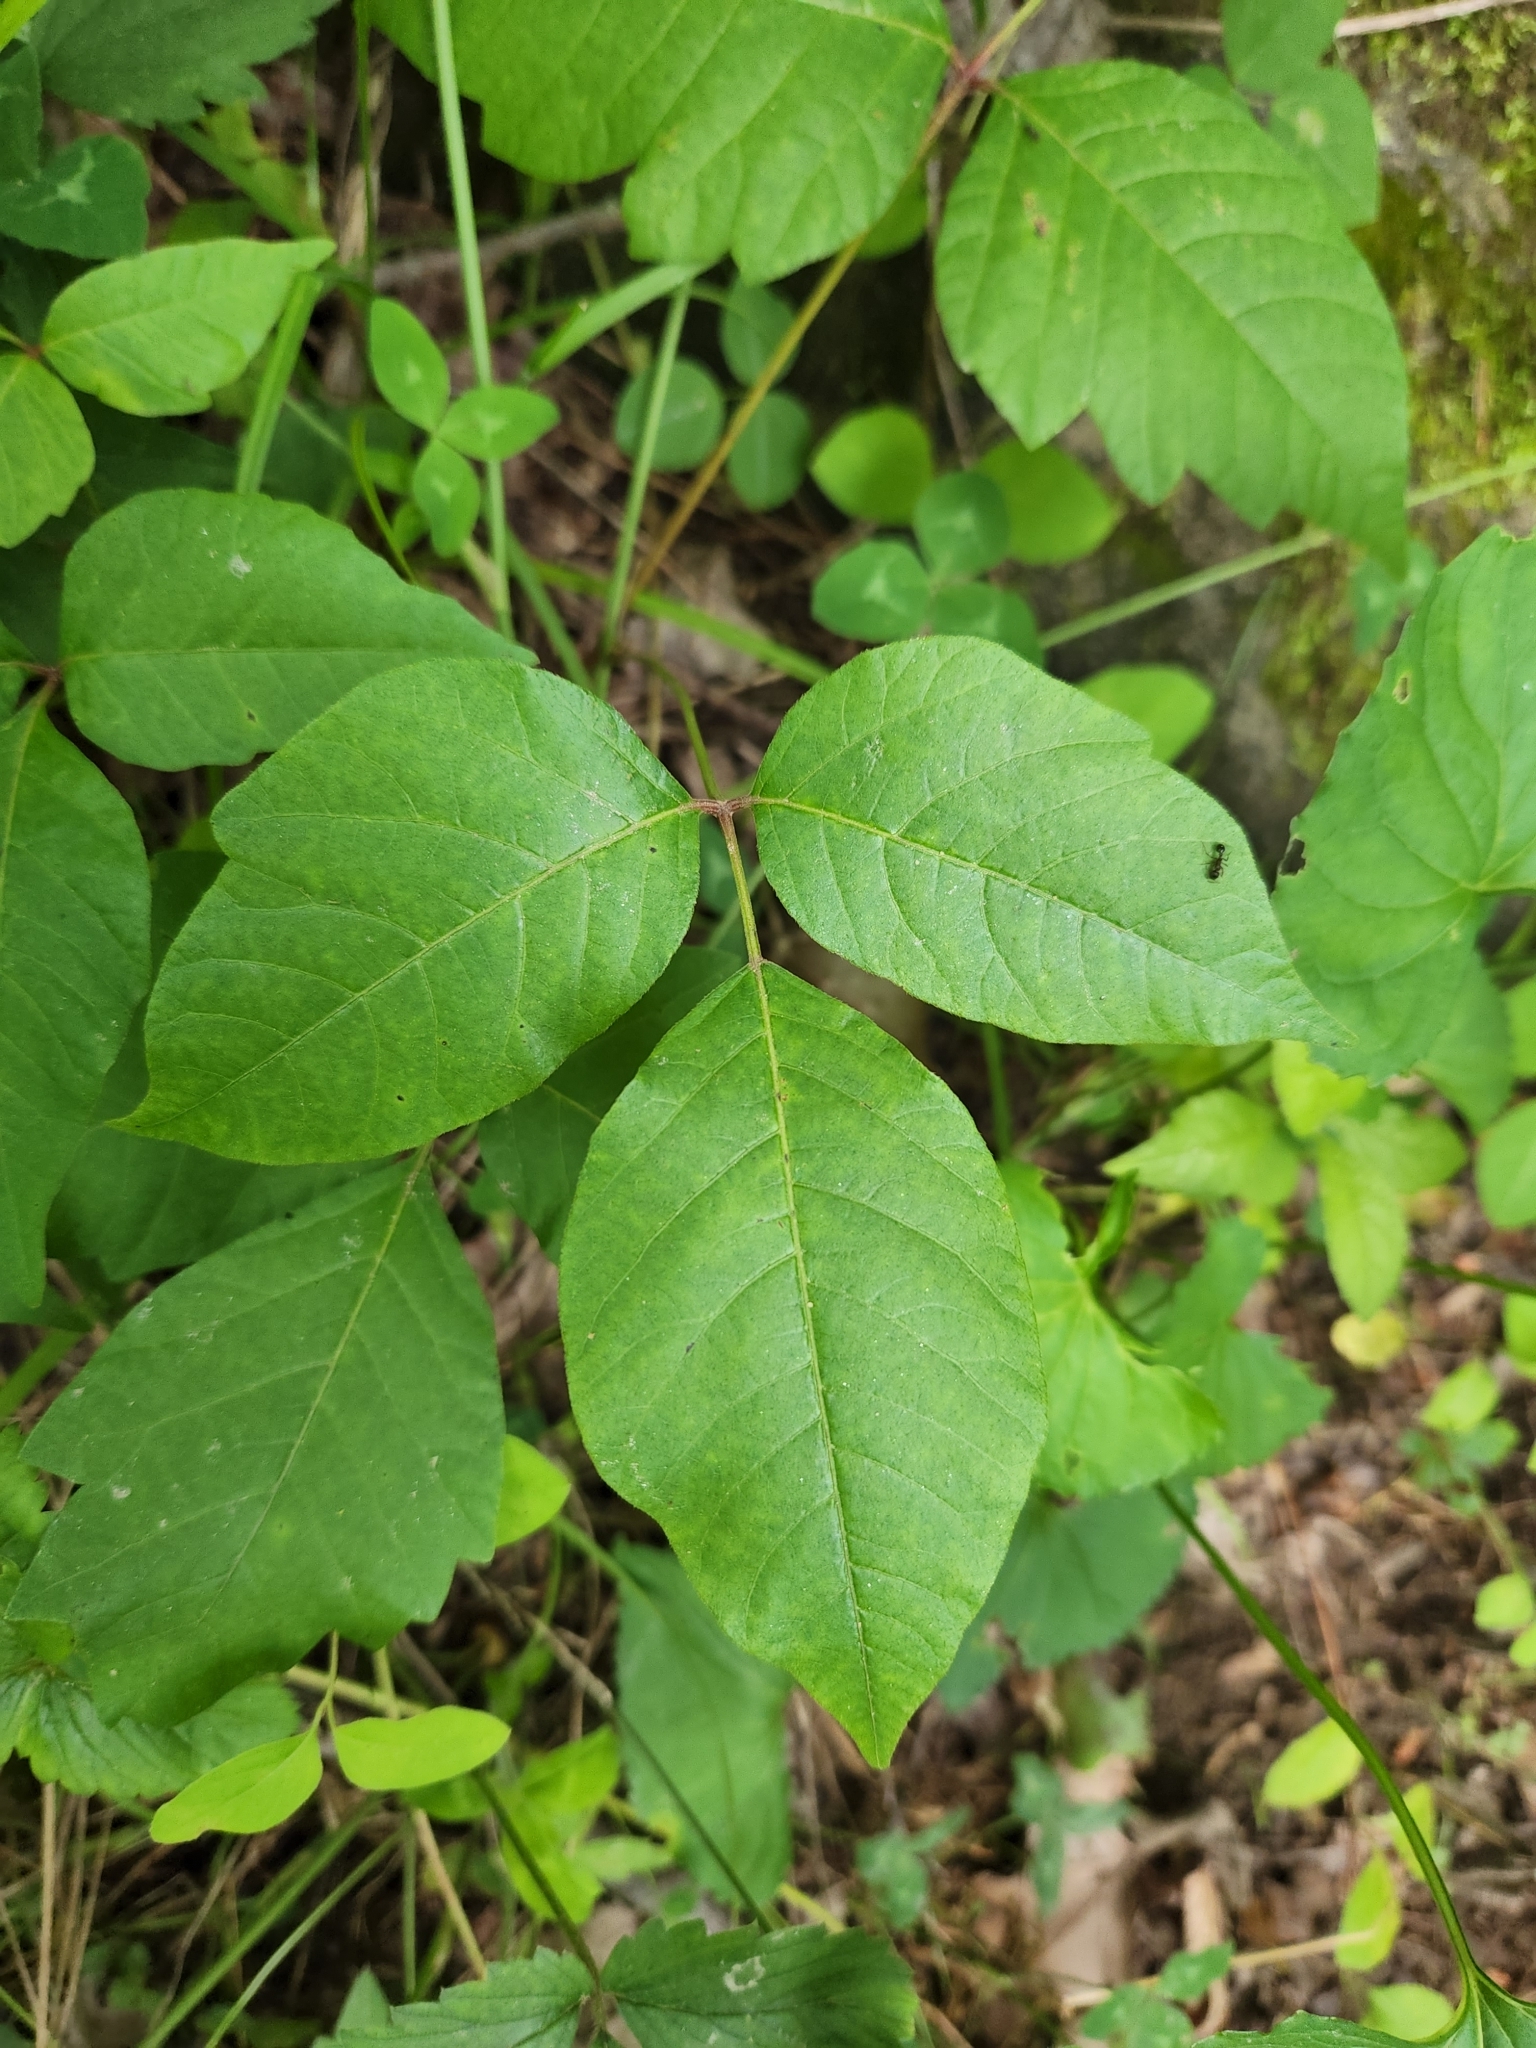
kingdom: Plantae
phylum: Tracheophyta
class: Magnoliopsida
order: Sapindales
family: Anacardiaceae
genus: Toxicodendron
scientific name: Toxicodendron radicans
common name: Poison ivy
